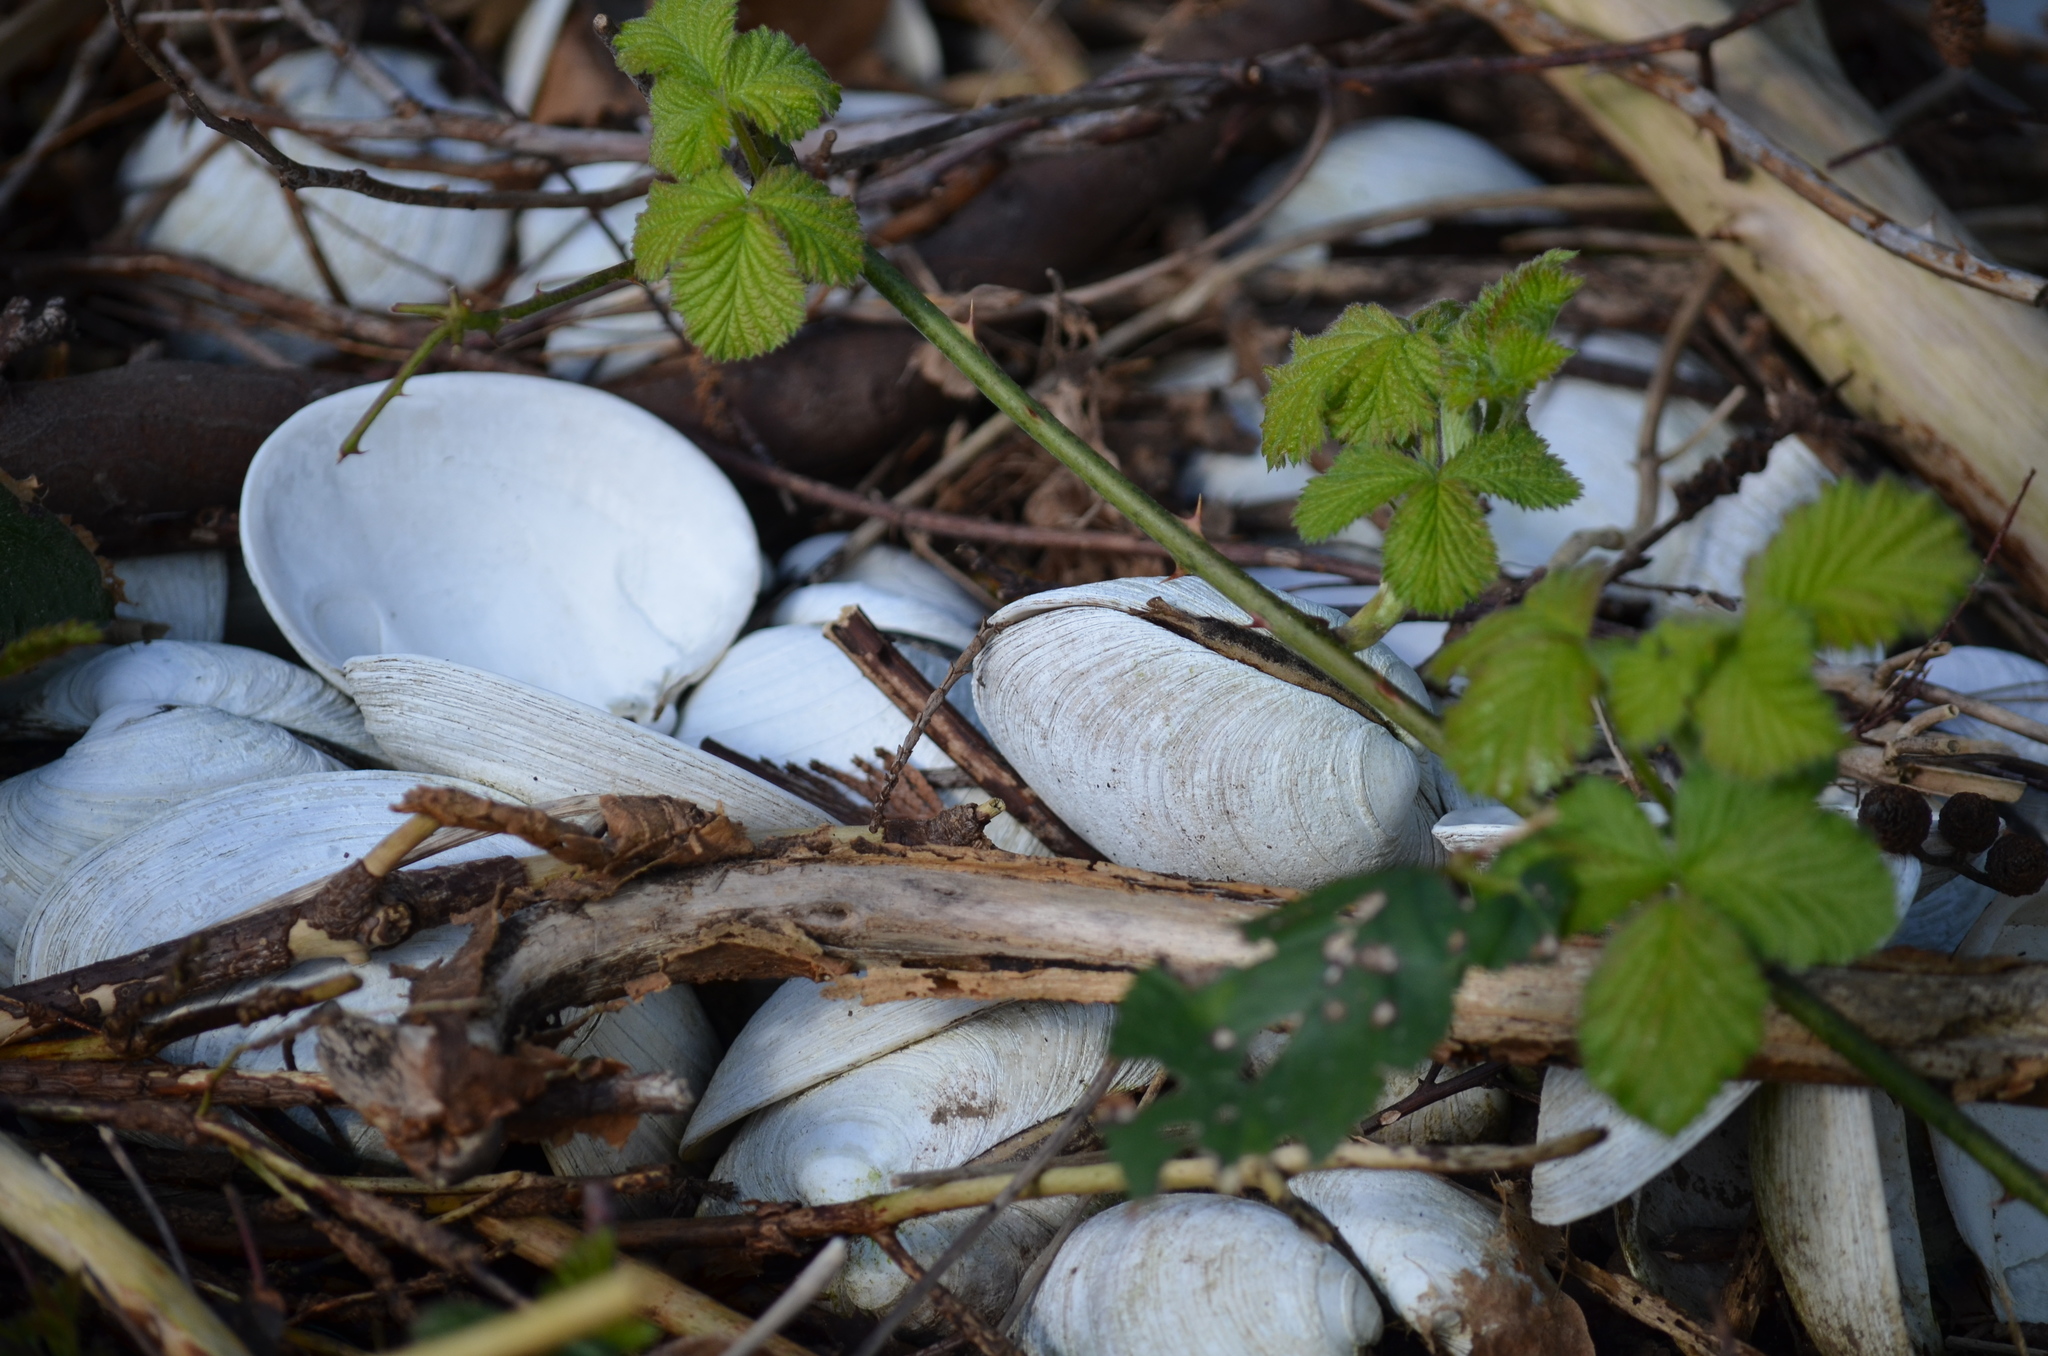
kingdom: Animalia
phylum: Mollusca
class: Bivalvia
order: Venerida
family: Veneridae
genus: Saxidomus
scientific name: Saxidomus gigantea
